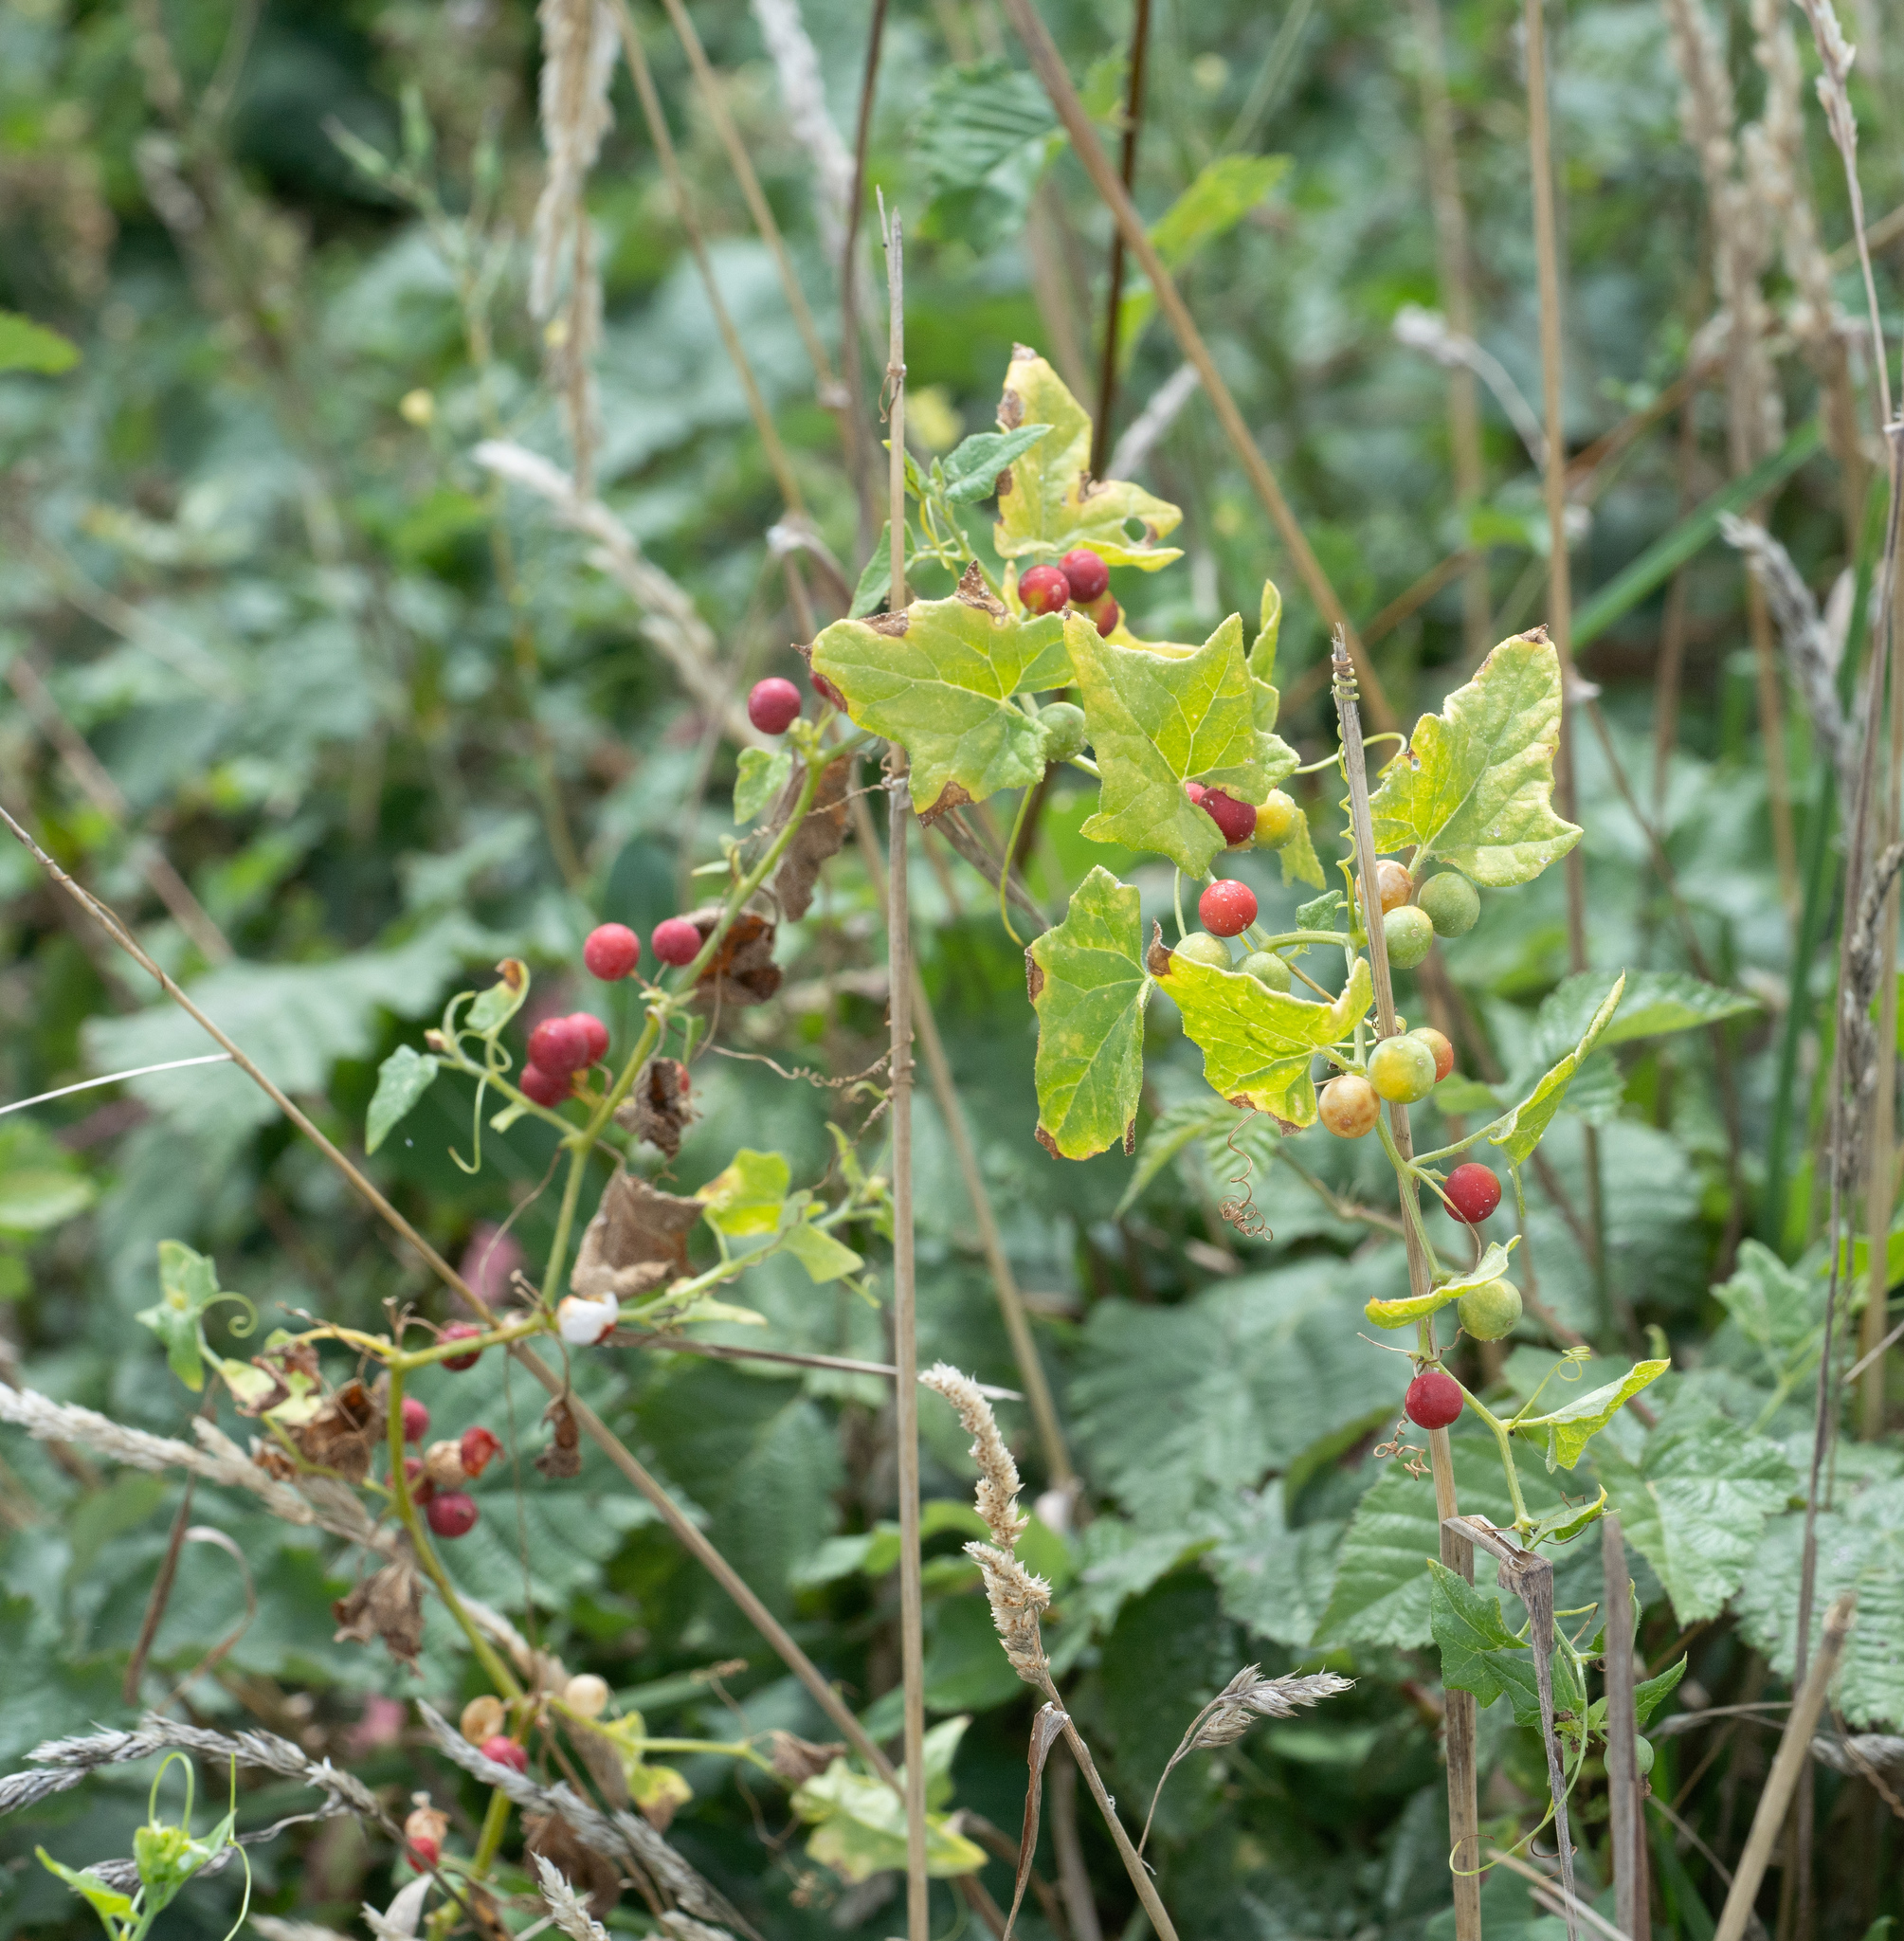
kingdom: Plantae
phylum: Tracheophyta
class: Magnoliopsida
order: Cucurbitales
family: Cucurbitaceae
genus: Bryonia
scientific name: Bryonia cretica
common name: Cretan bryony
